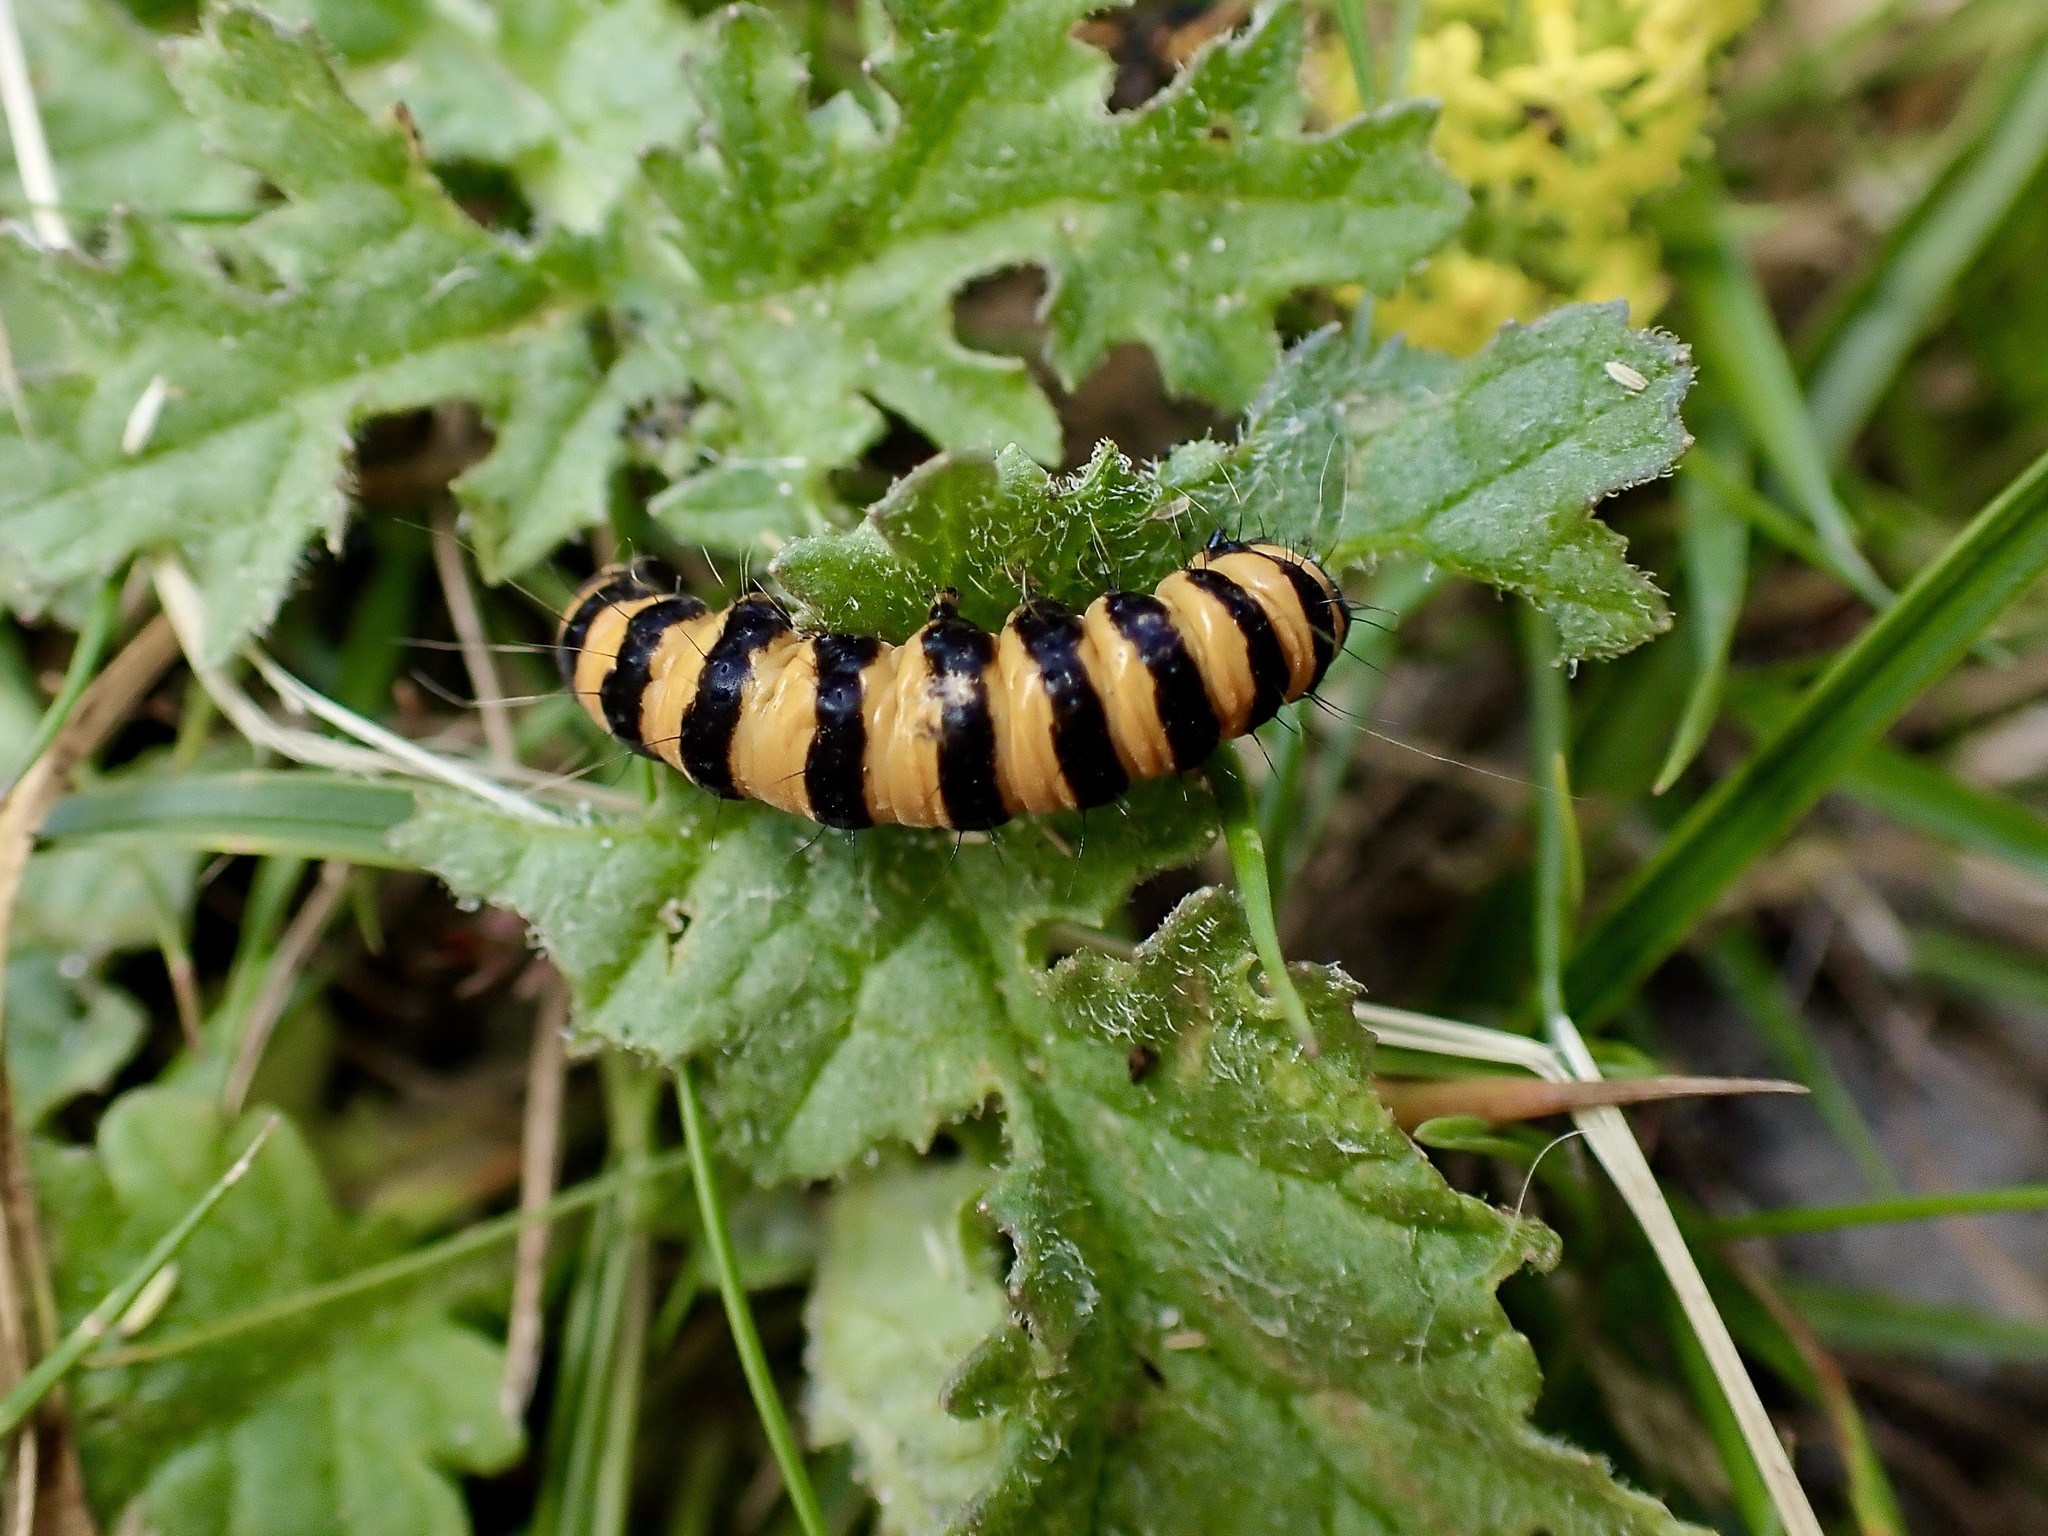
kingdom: Animalia
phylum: Arthropoda
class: Insecta
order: Lepidoptera
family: Erebidae
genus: Tyria
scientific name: Tyria jacobaeae
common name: Cinnabar
